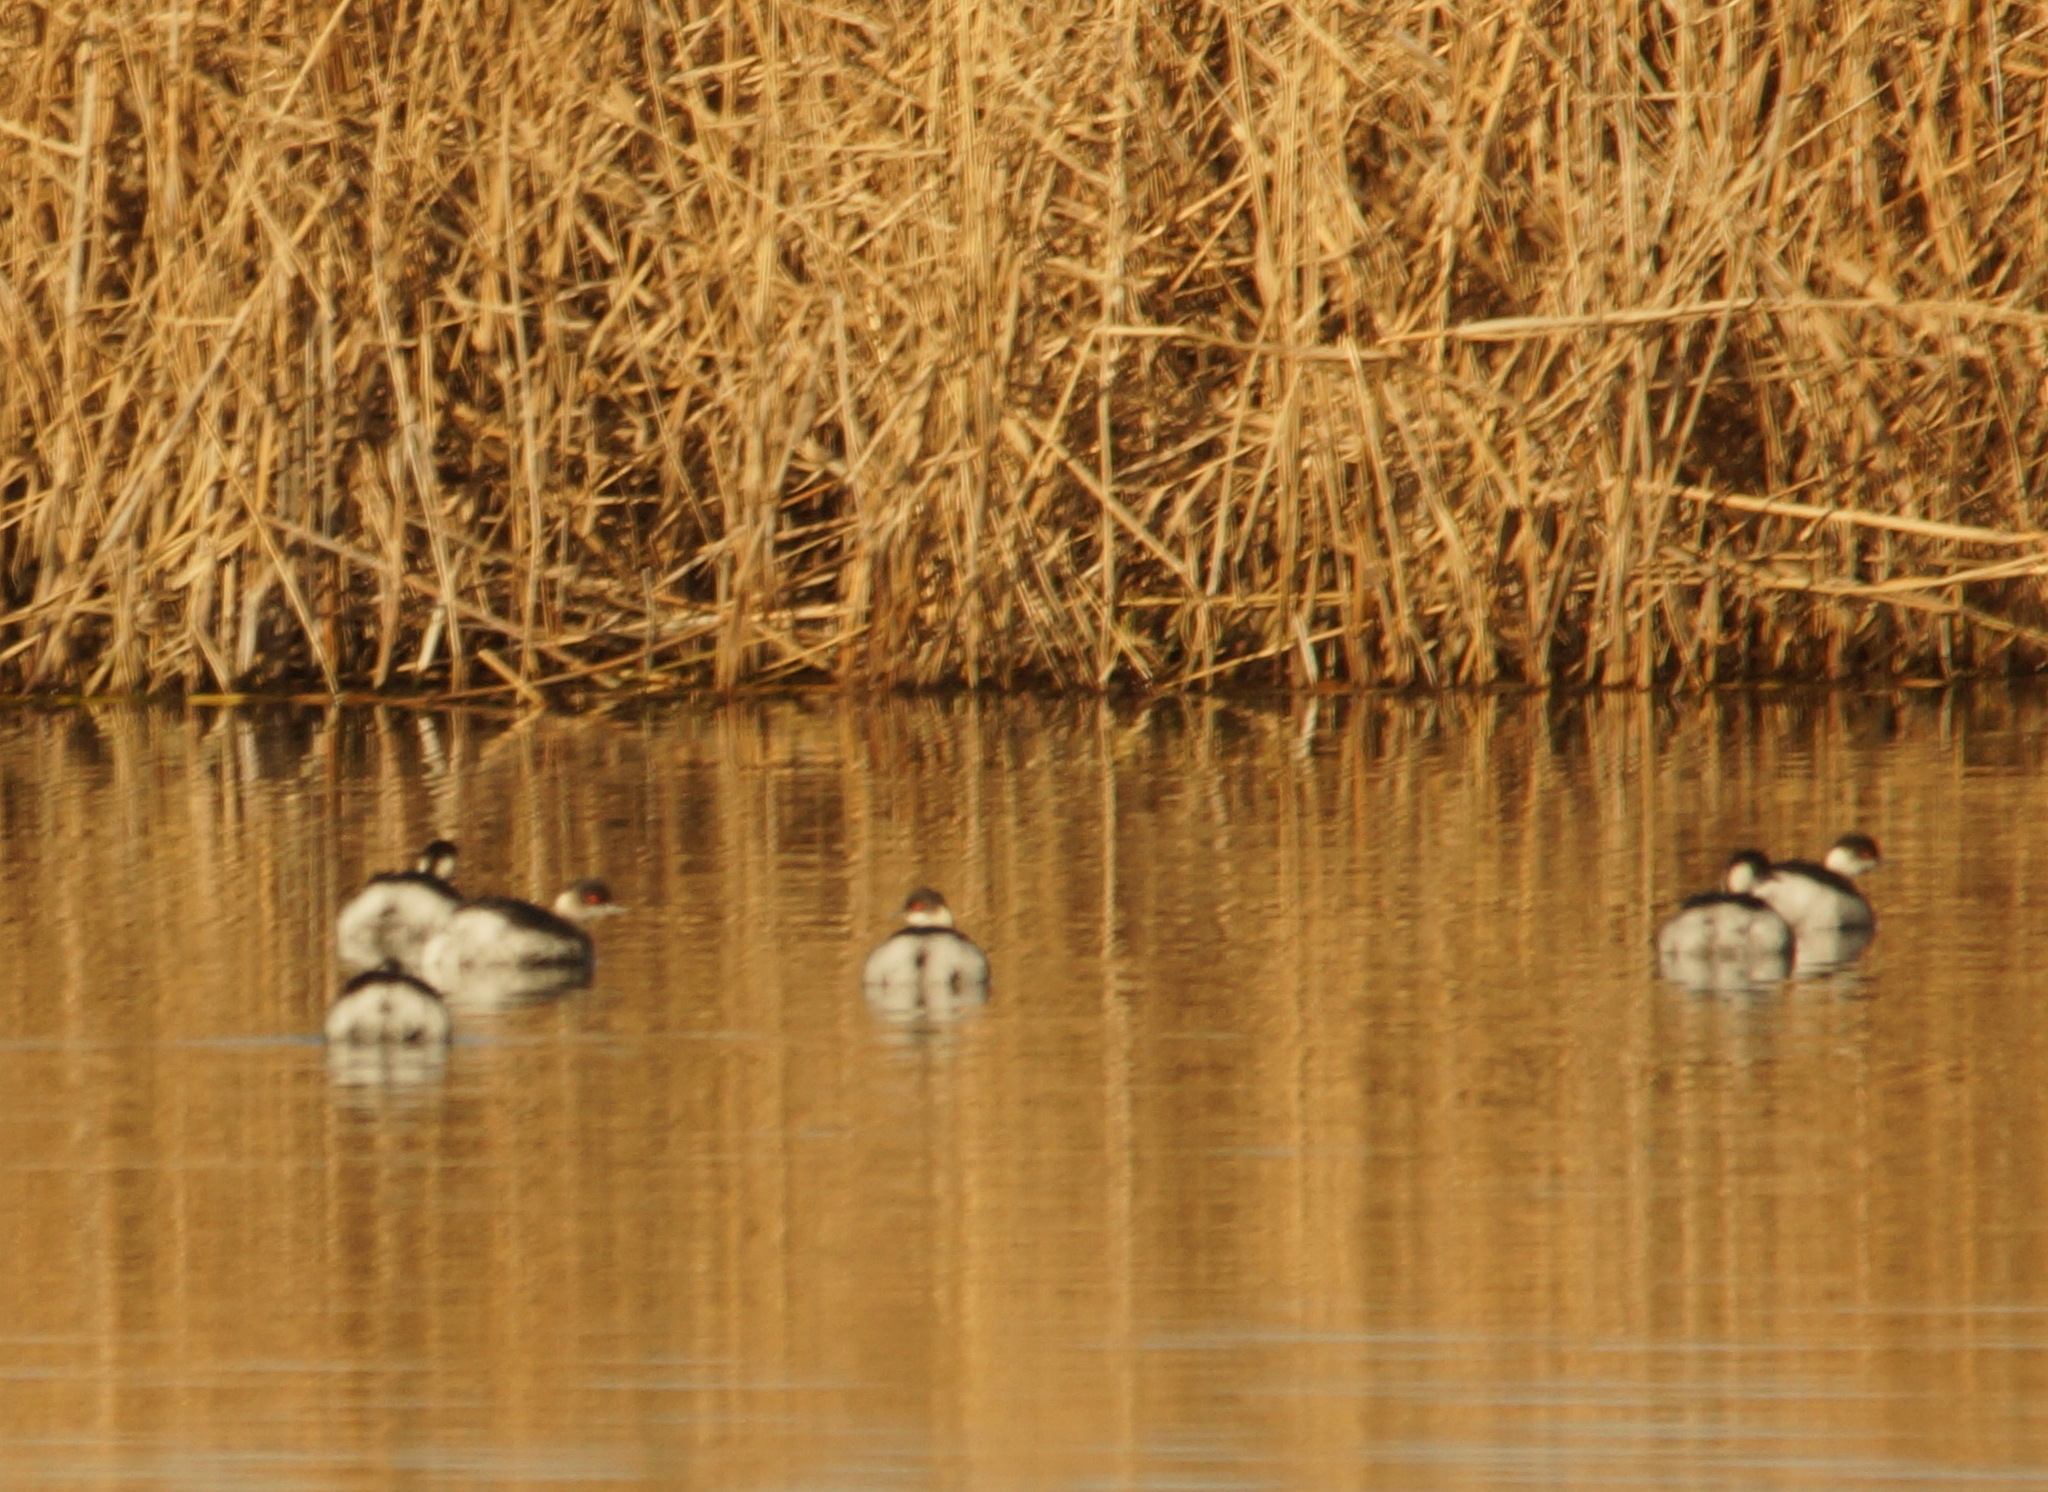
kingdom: Animalia
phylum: Chordata
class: Aves
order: Podicipediformes
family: Podicipedidae
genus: Podiceps
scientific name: Podiceps nigricollis
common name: Black-necked grebe
